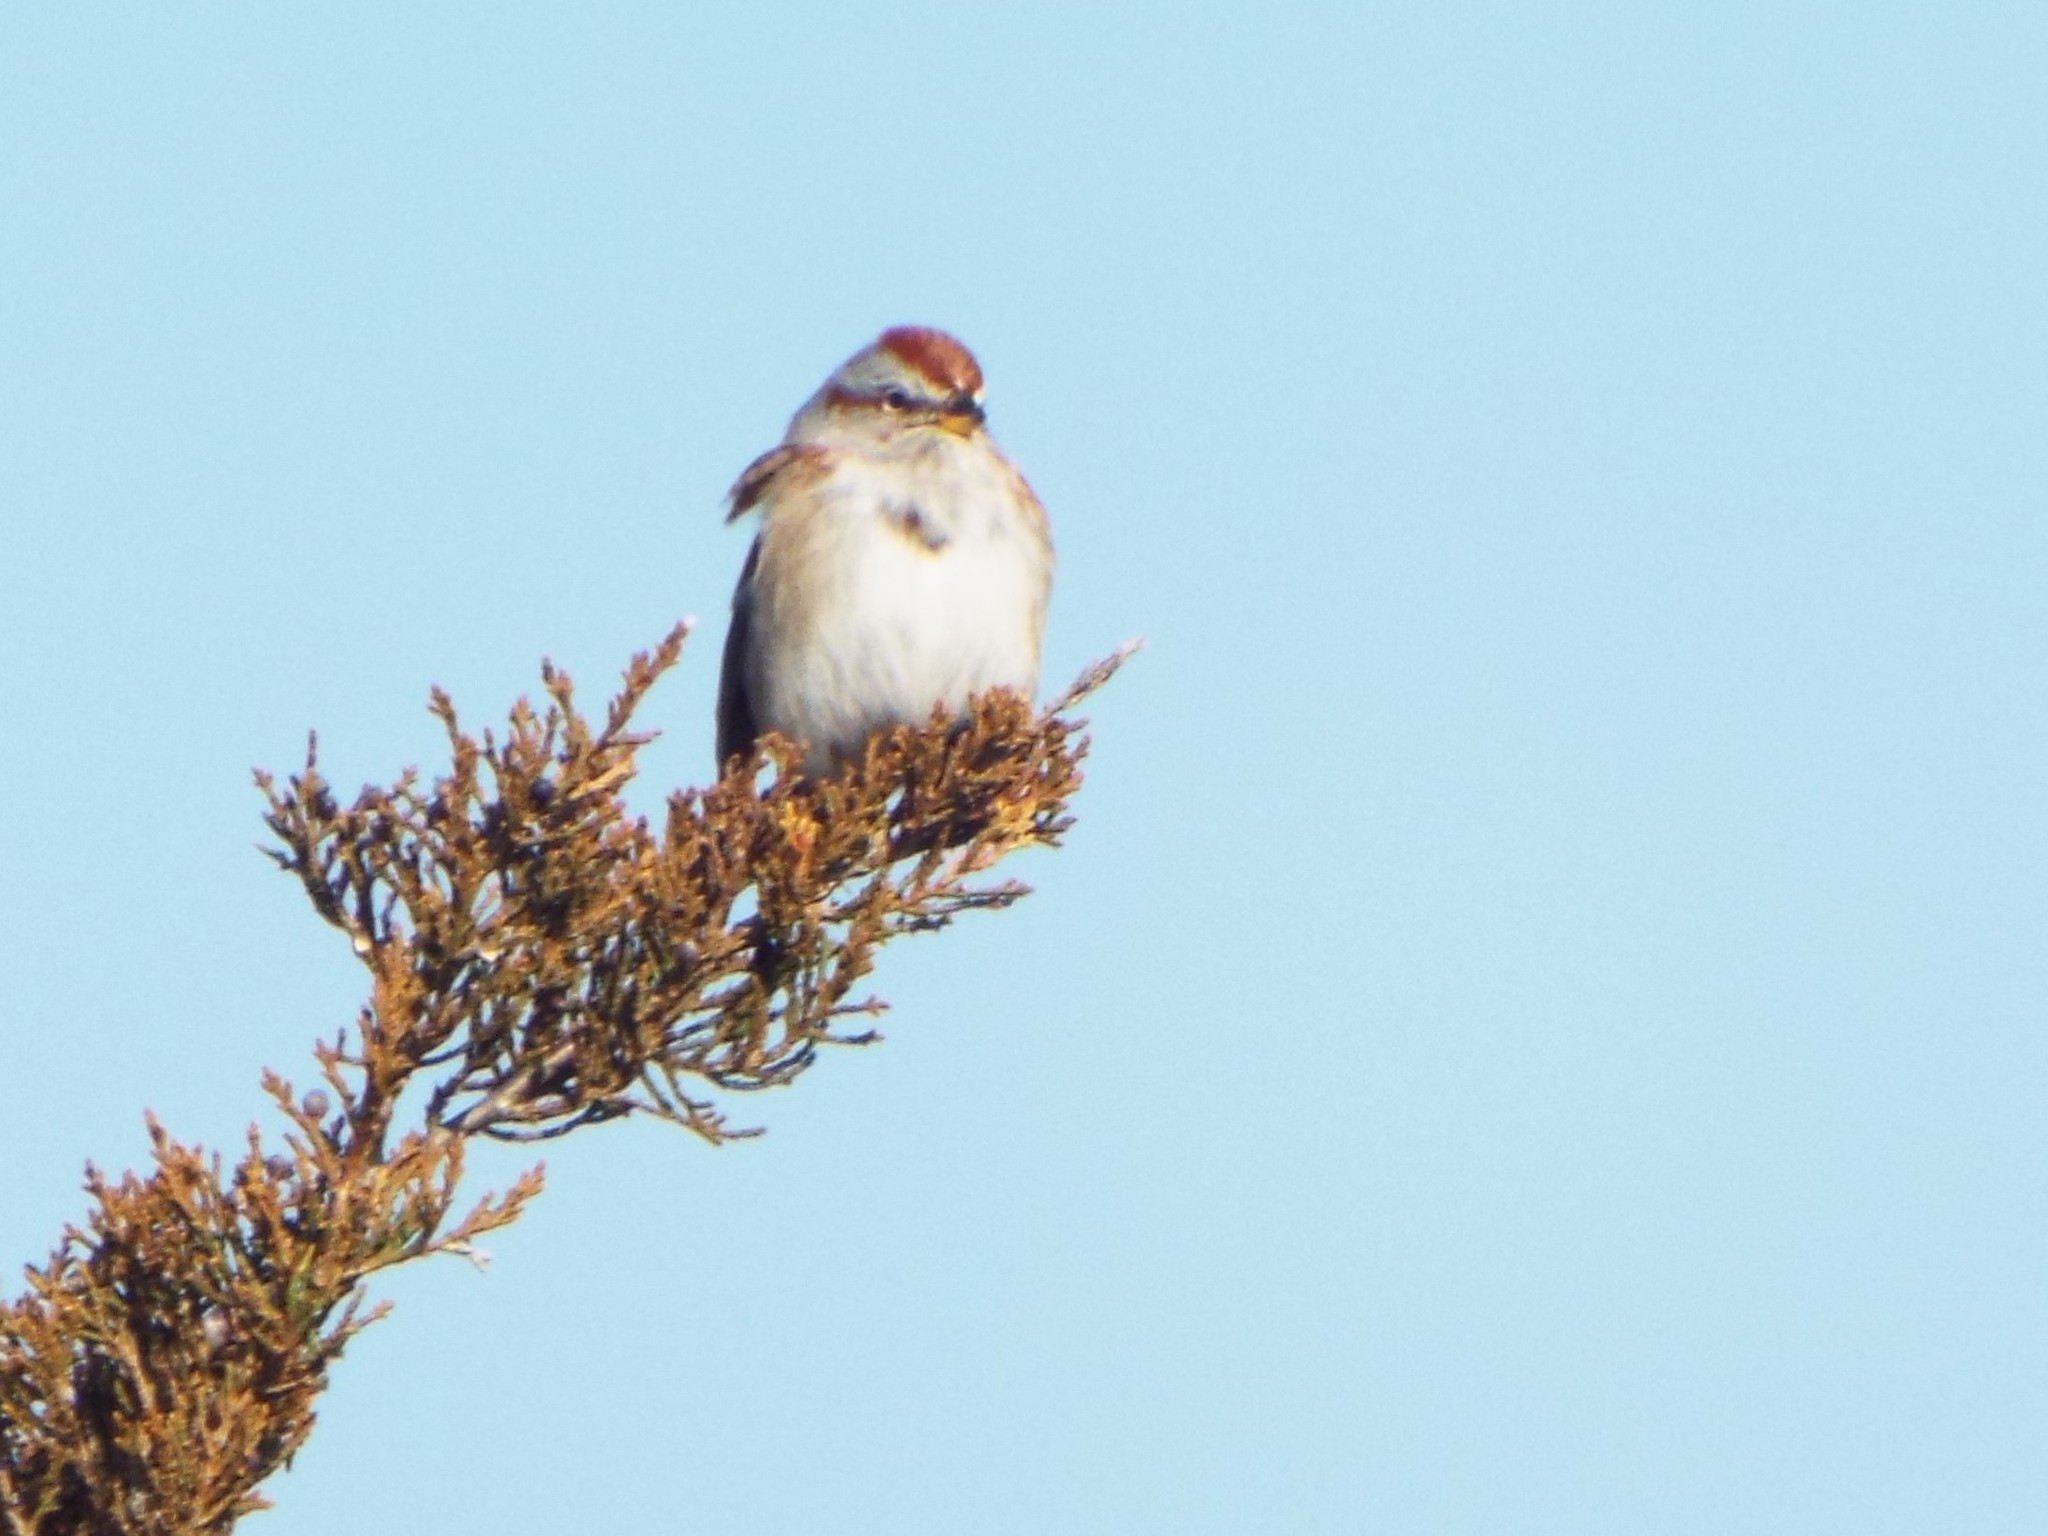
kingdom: Animalia
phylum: Chordata
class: Aves
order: Passeriformes
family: Passerellidae
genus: Spizelloides
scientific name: Spizelloides arborea
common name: American tree sparrow
